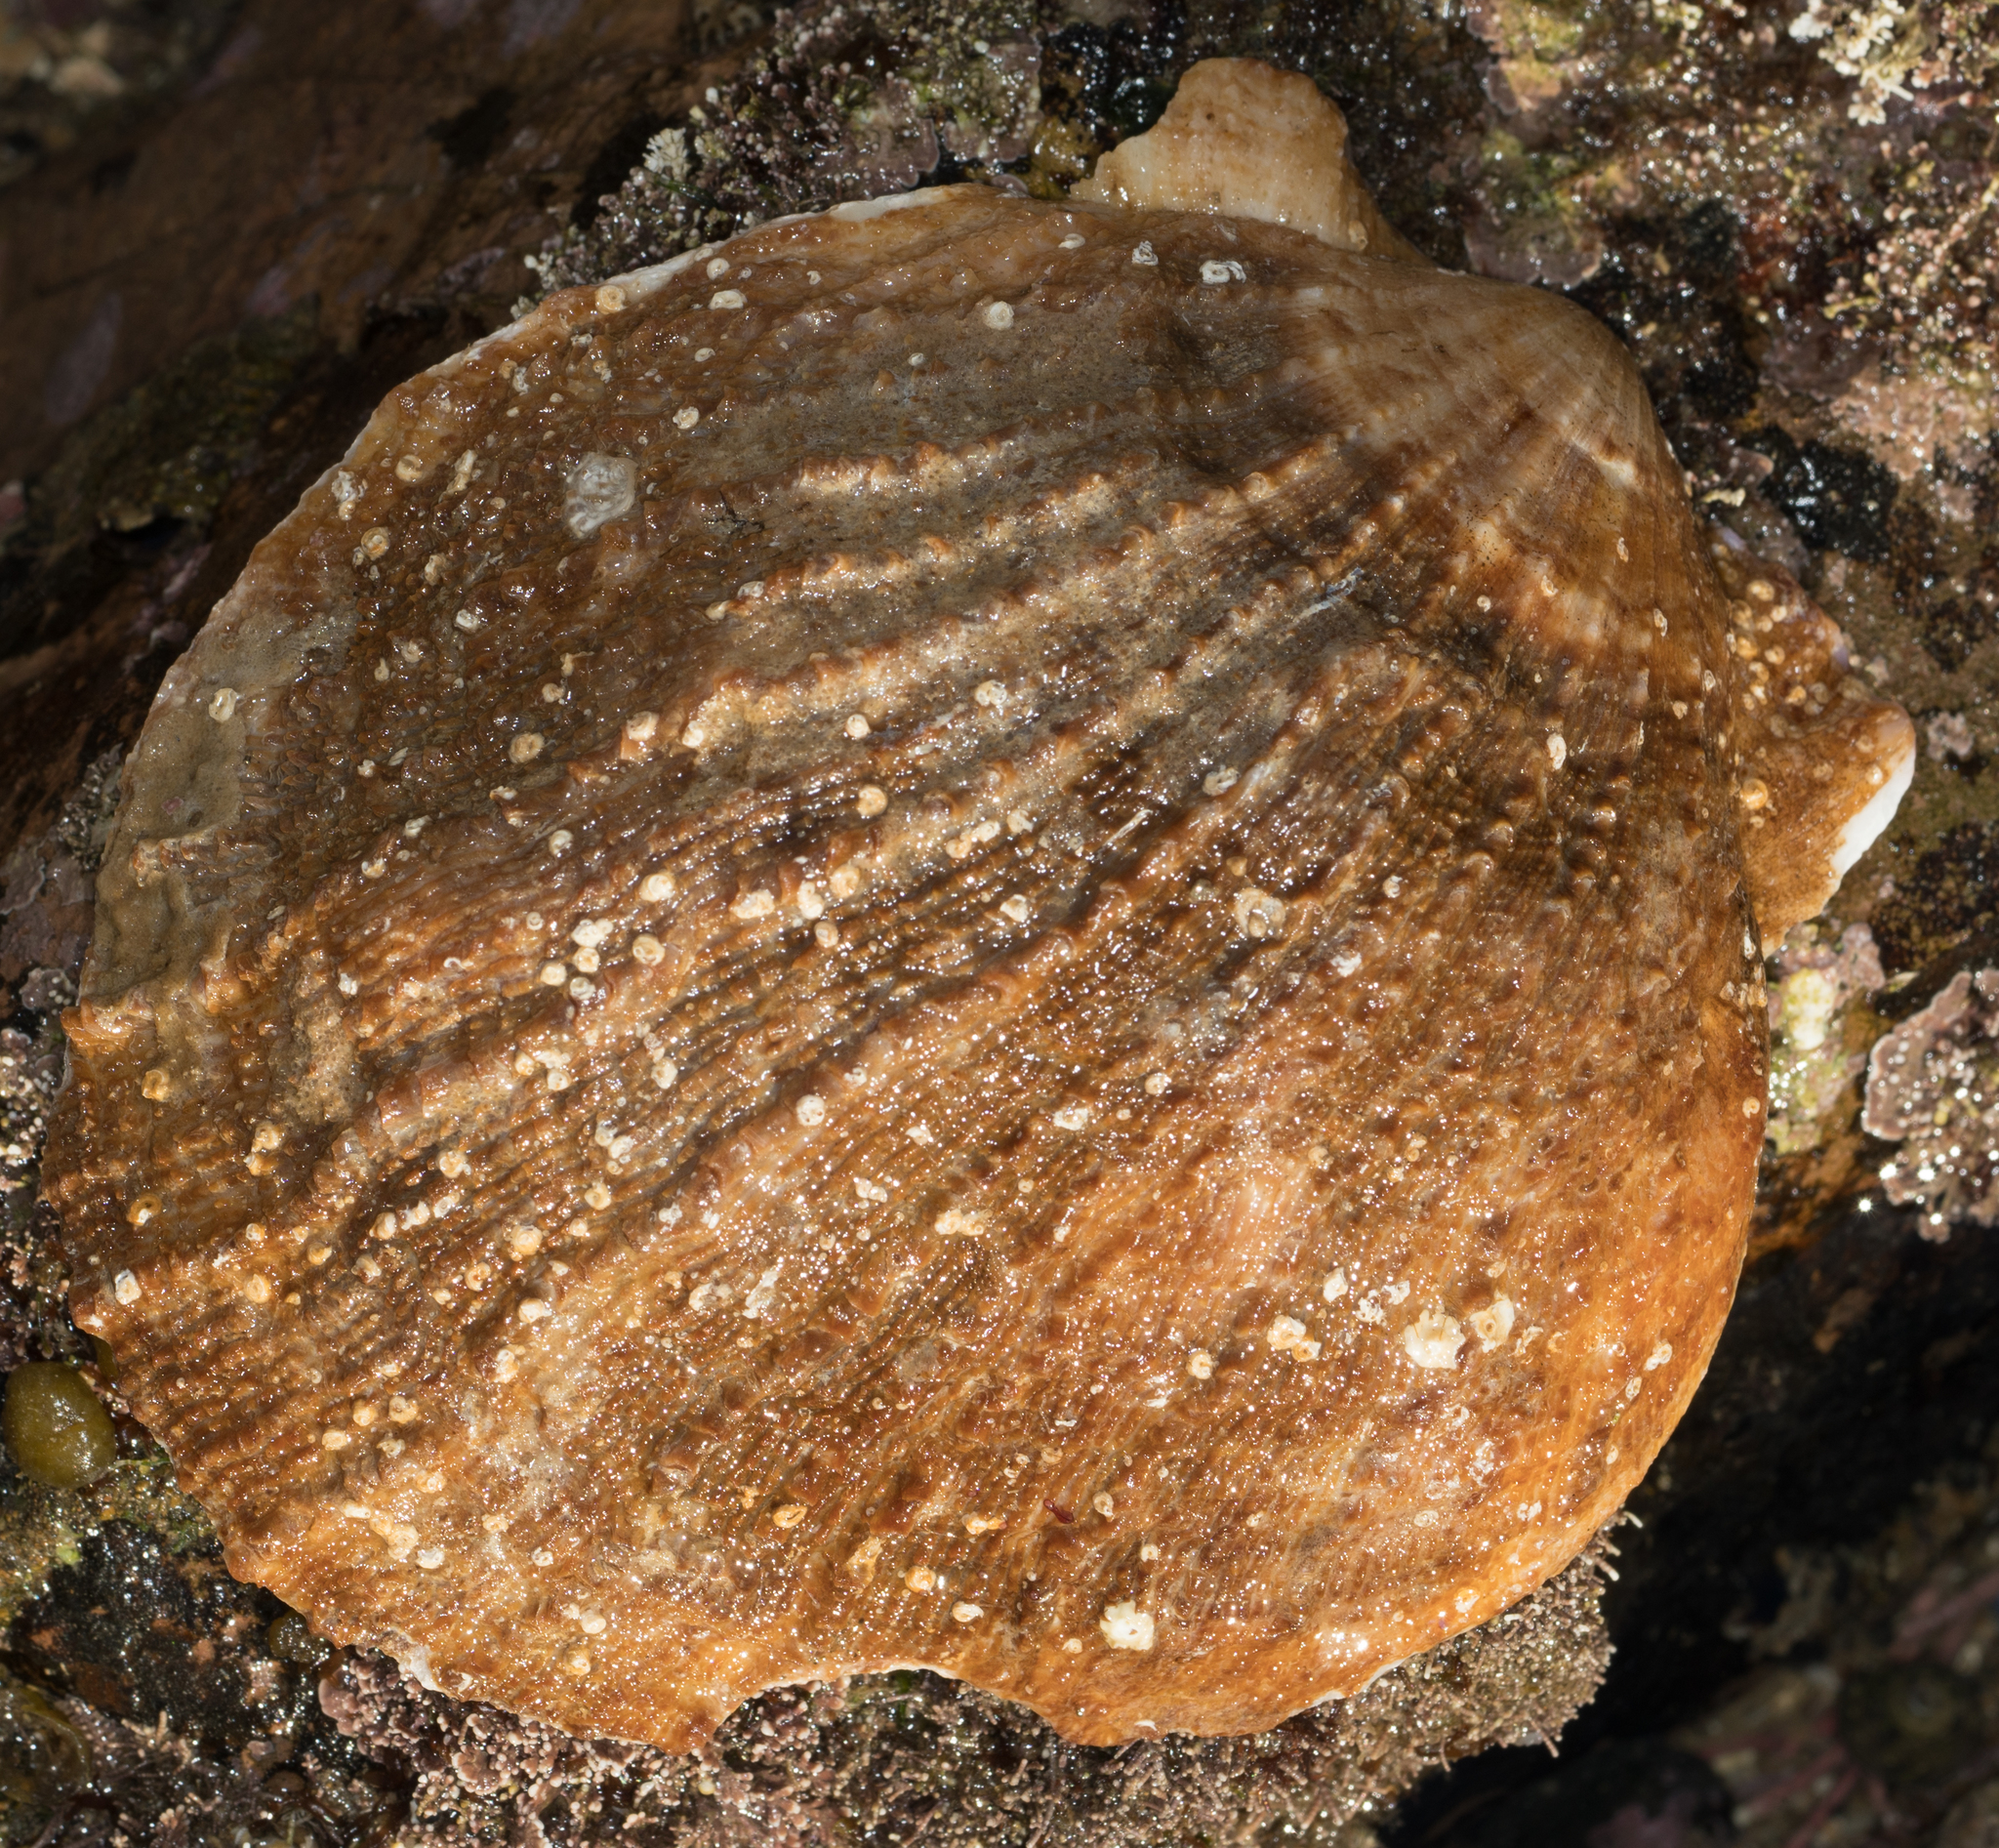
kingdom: Animalia
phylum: Mollusca
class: Bivalvia
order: Pectinida
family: Pectinidae
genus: Crassadoma
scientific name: Crassadoma gigantea
